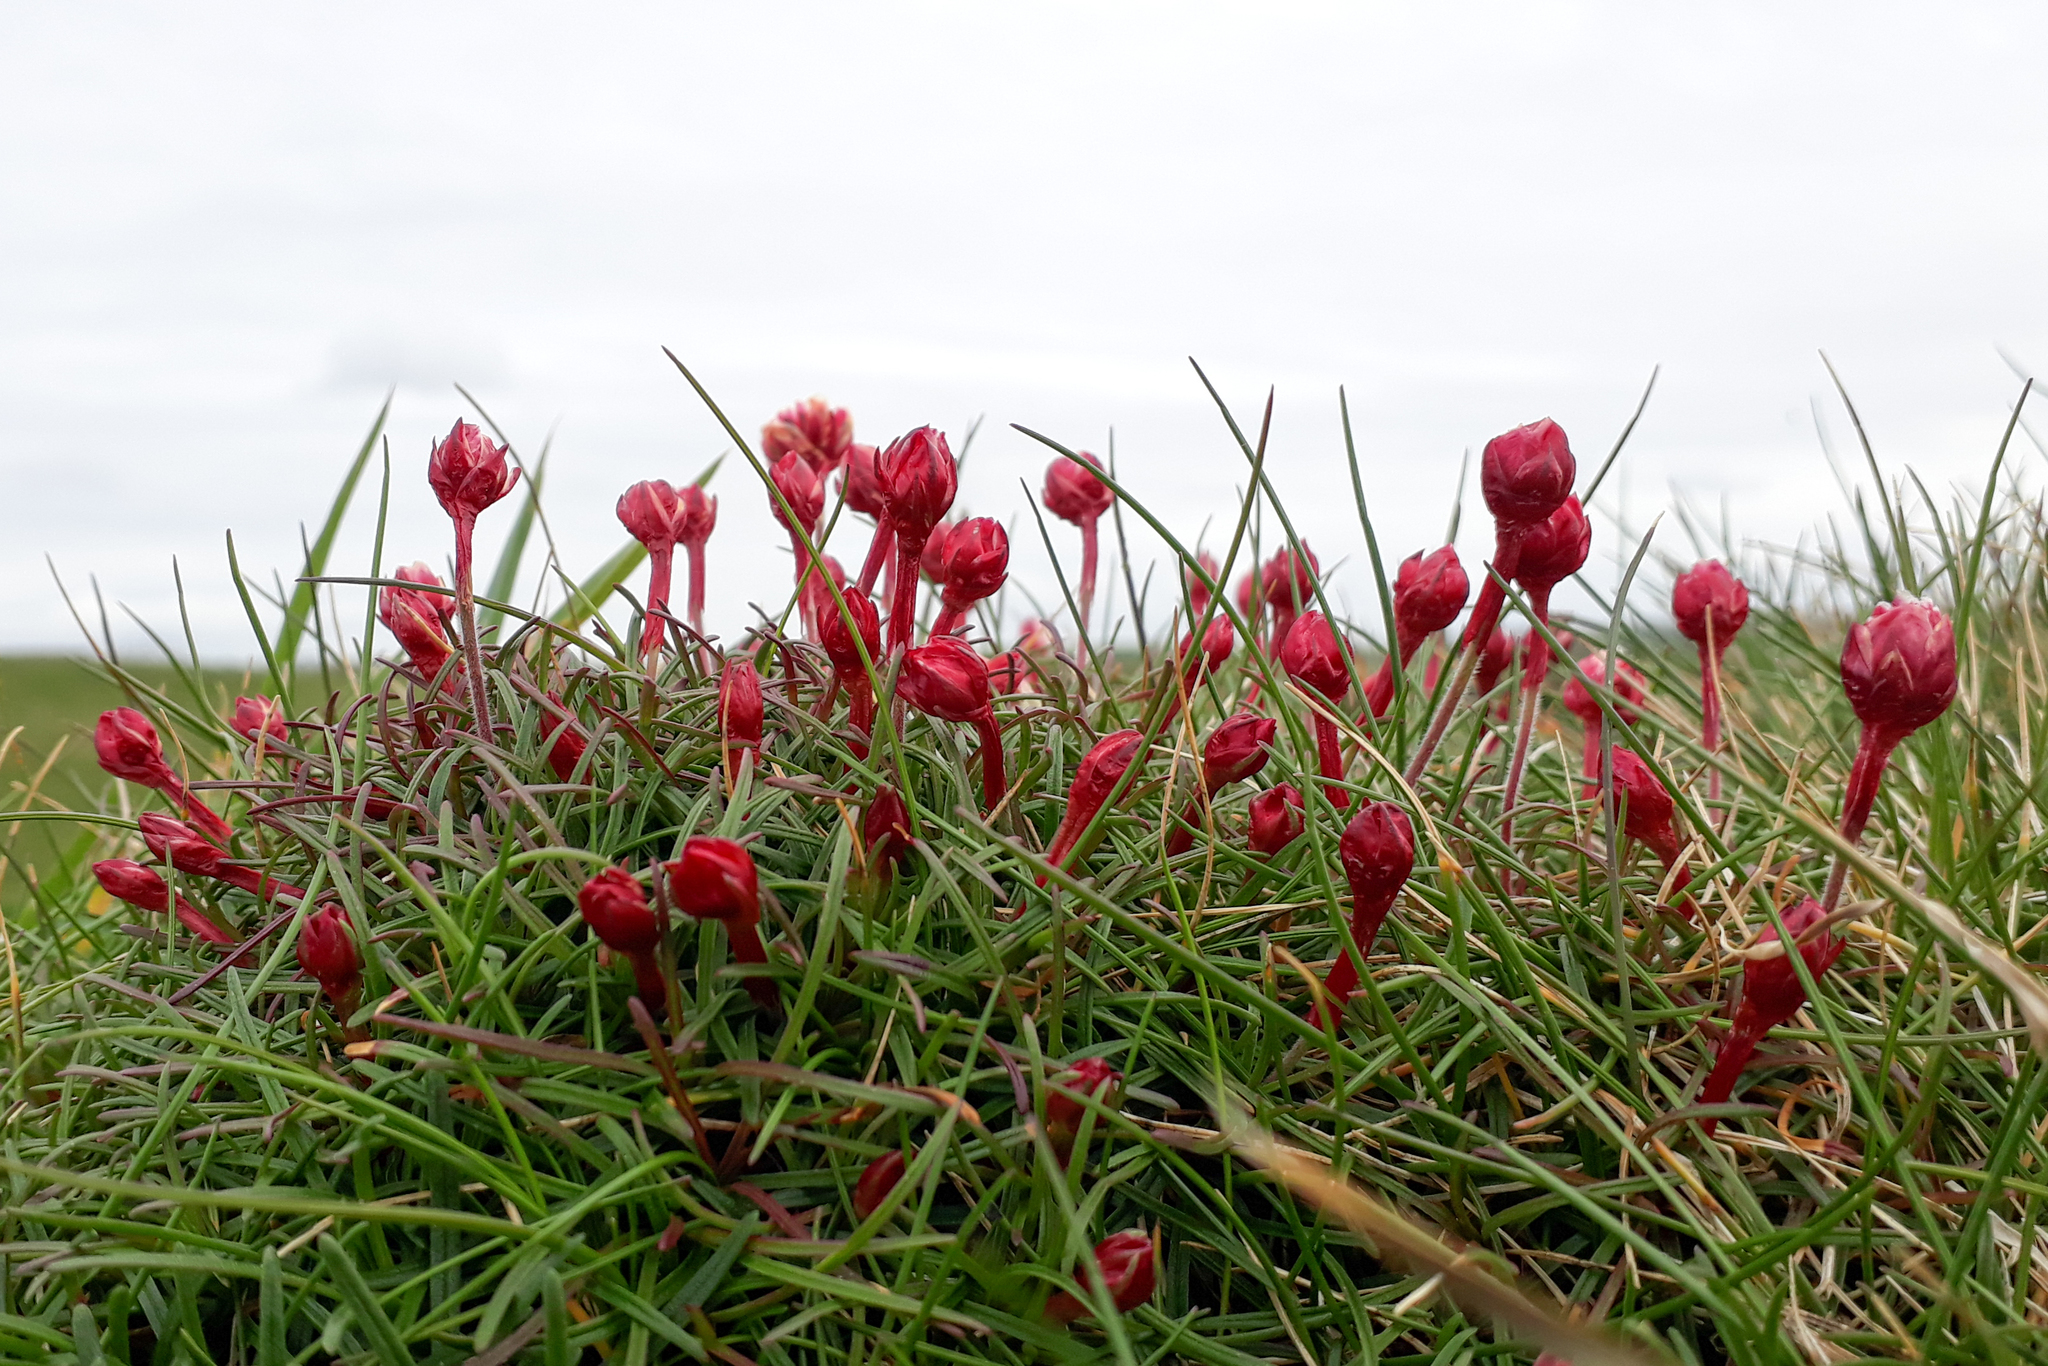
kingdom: Plantae
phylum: Tracheophyta
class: Magnoliopsida
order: Caryophyllales
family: Plumbaginaceae
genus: Armeria
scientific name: Armeria maritima
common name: Thrift
